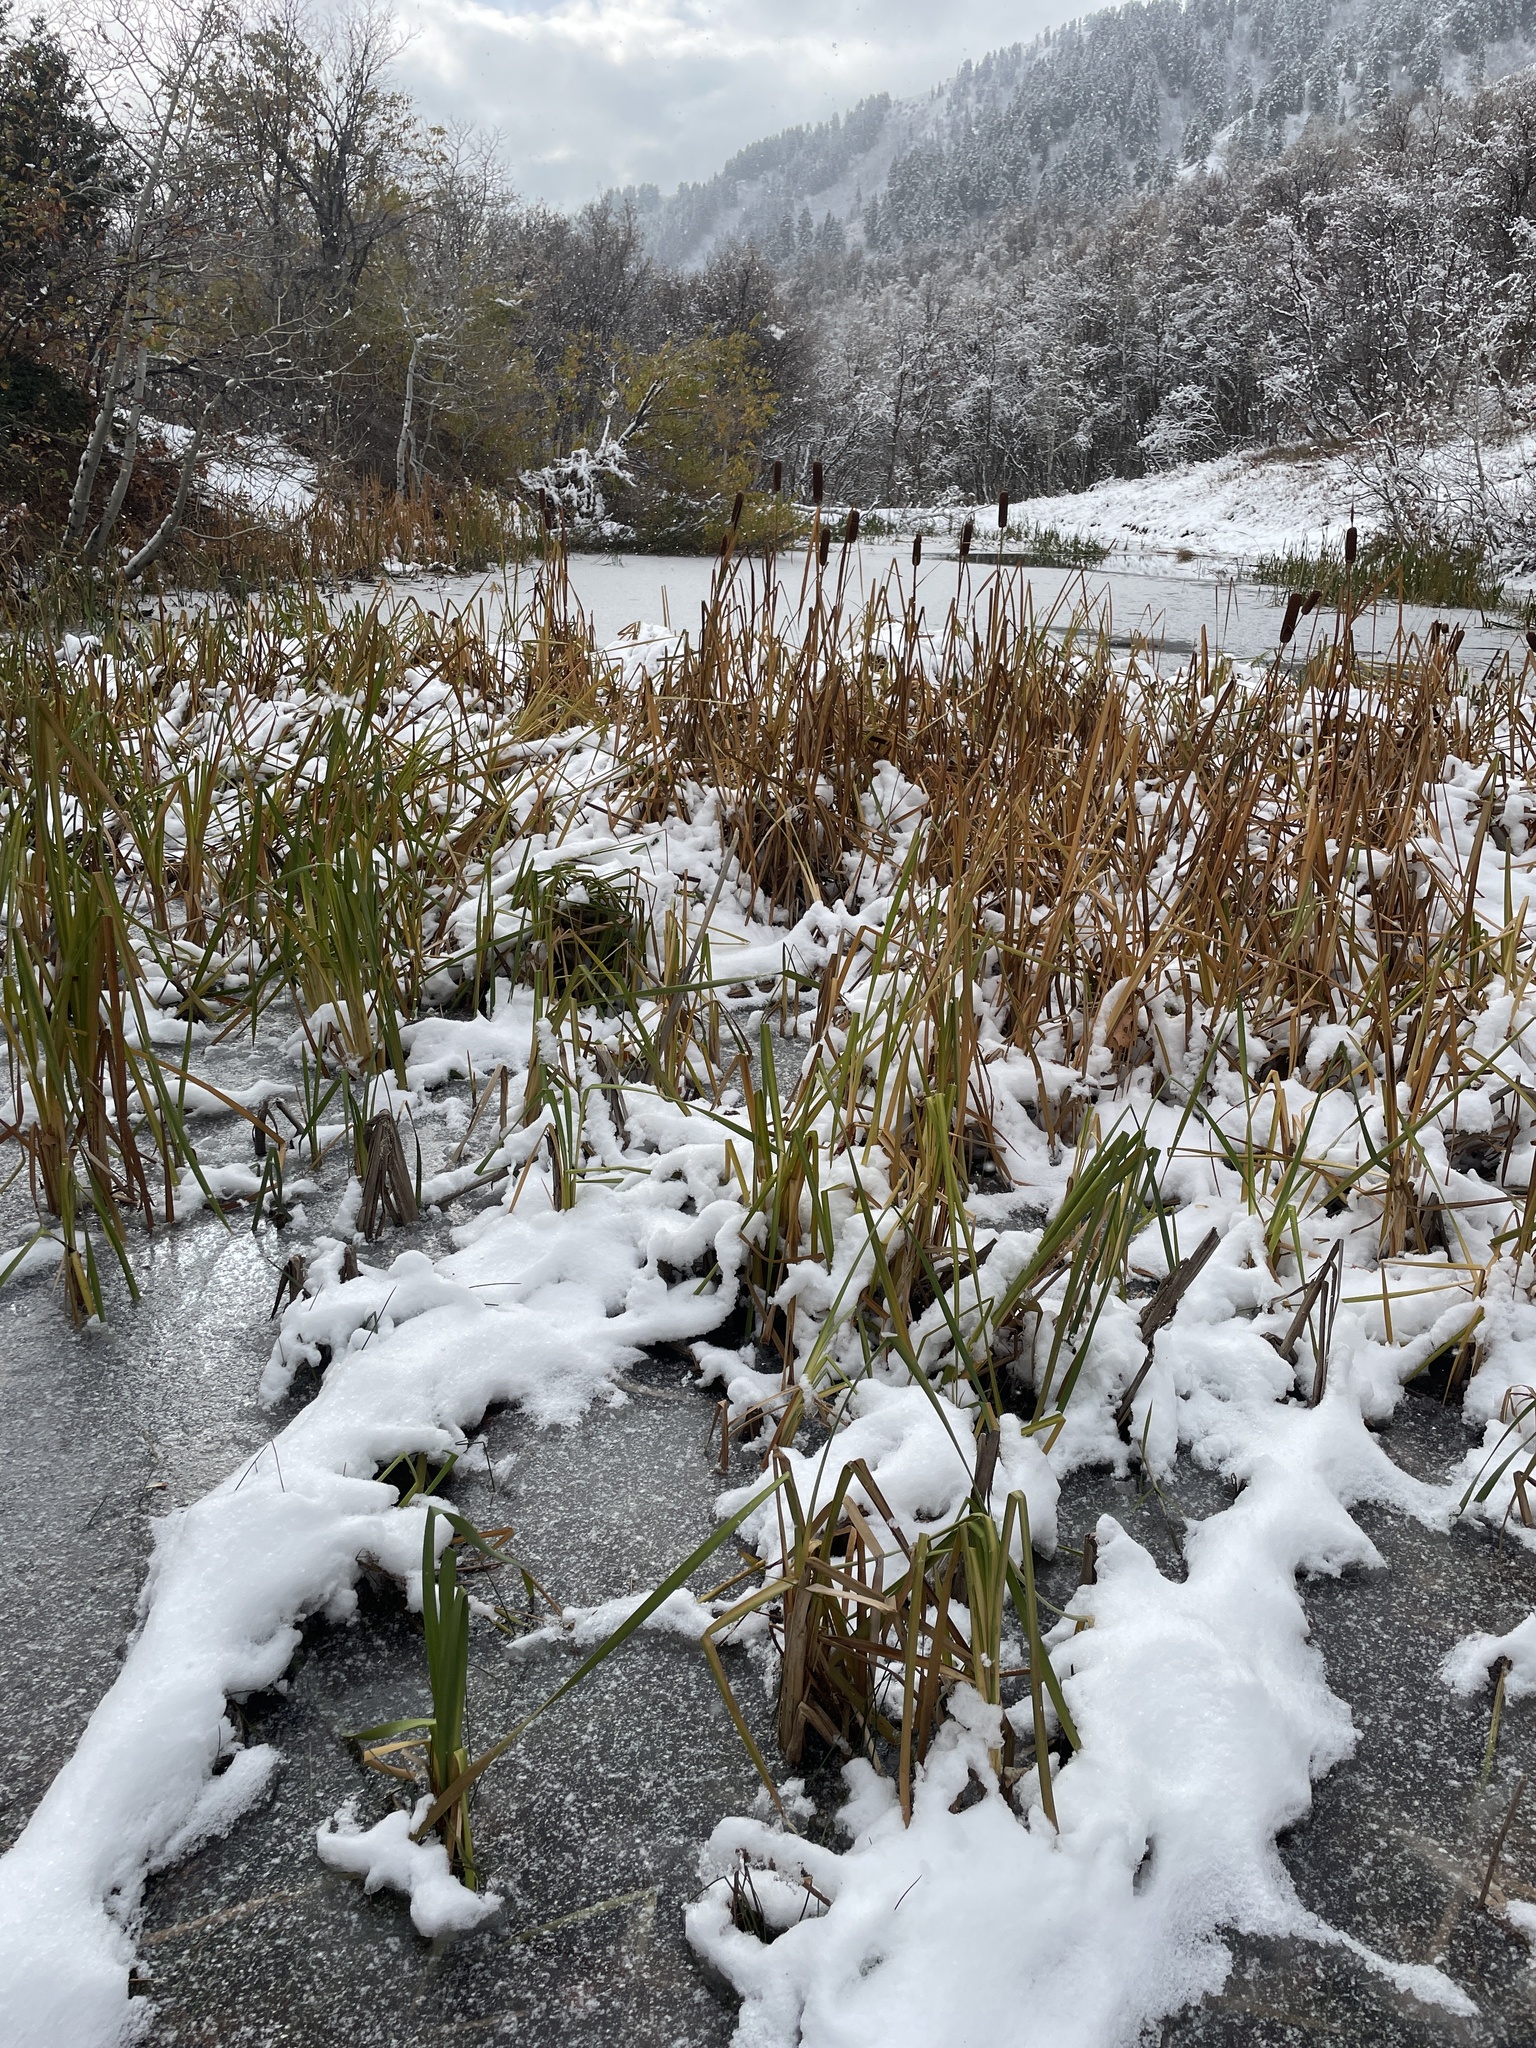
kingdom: Plantae
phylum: Tracheophyta
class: Liliopsida
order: Poales
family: Typhaceae
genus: Typha
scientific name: Typha latifolia
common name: Broadleaf cattail
